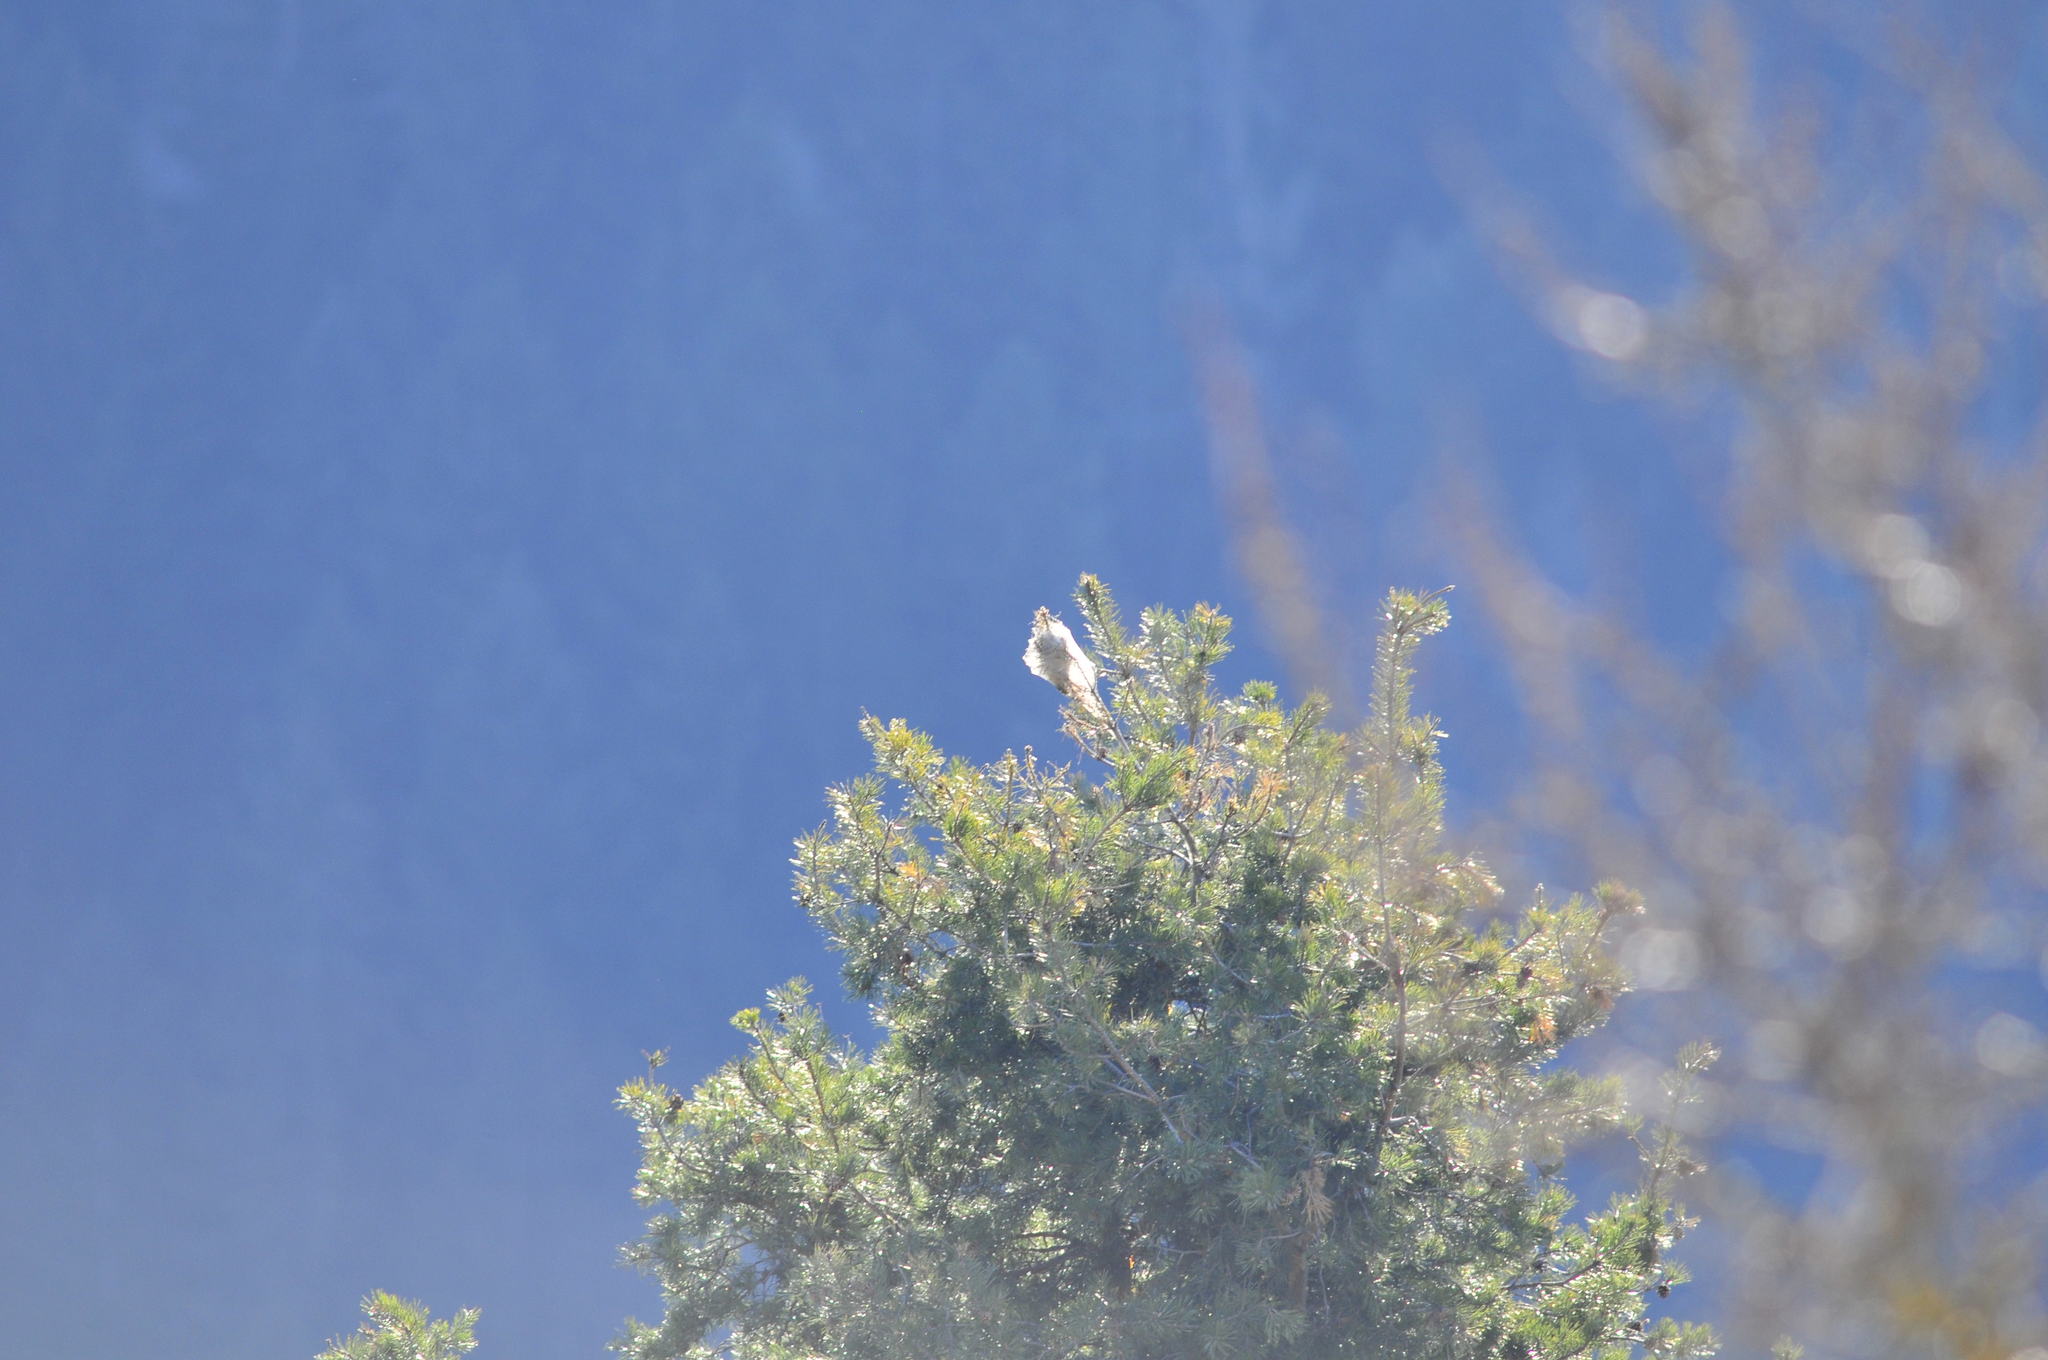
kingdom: Animalia
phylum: Arthropoda
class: Insecta
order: Lepidoptera
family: Notodontidae
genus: Thaumetopoea
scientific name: Thaumetopoea pityocampa
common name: Pine processionary
